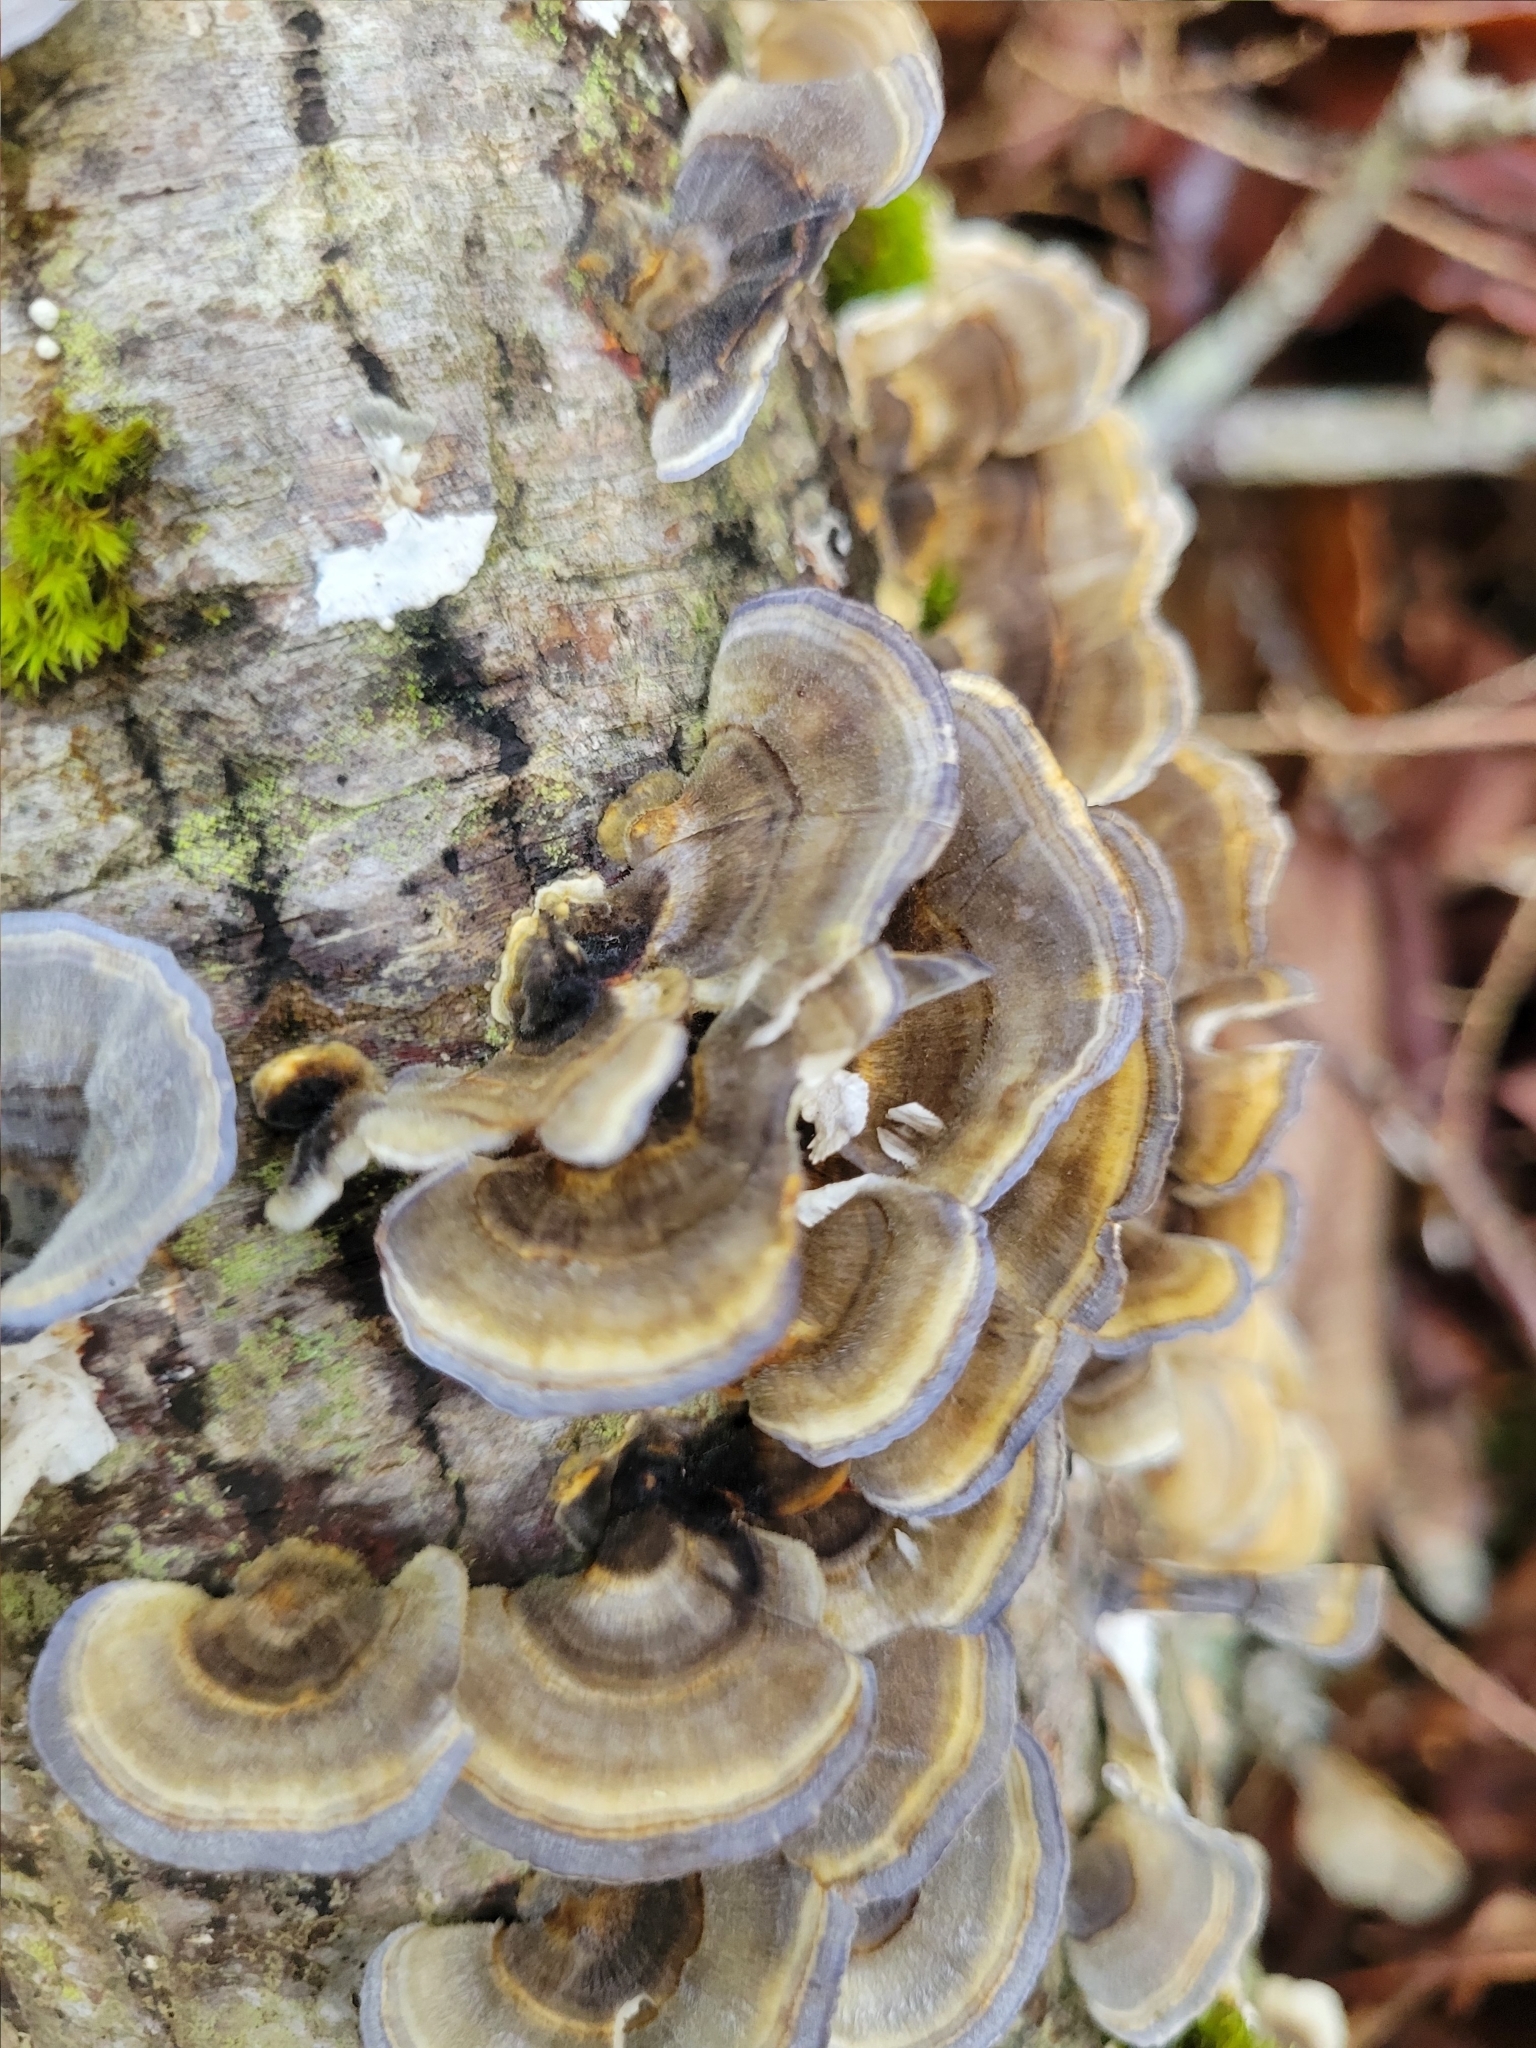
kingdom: Fungi
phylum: Basidiomycota
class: Agaricomycetes
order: Polyporales
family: Polyporaceae
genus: Trametes
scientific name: Trametes versicolor
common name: Turkeytail
